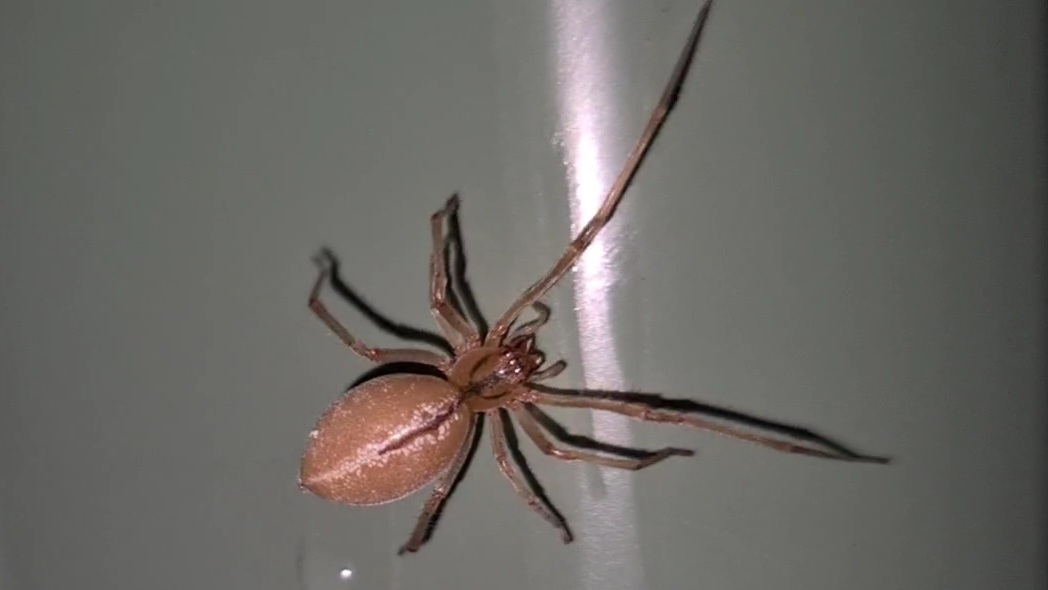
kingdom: Animalia
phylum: Arthropoda
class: Arachnida
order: Araneae
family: Cheiracanthiidae
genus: Cheiracanthium
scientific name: Cheiracanthium gracile
